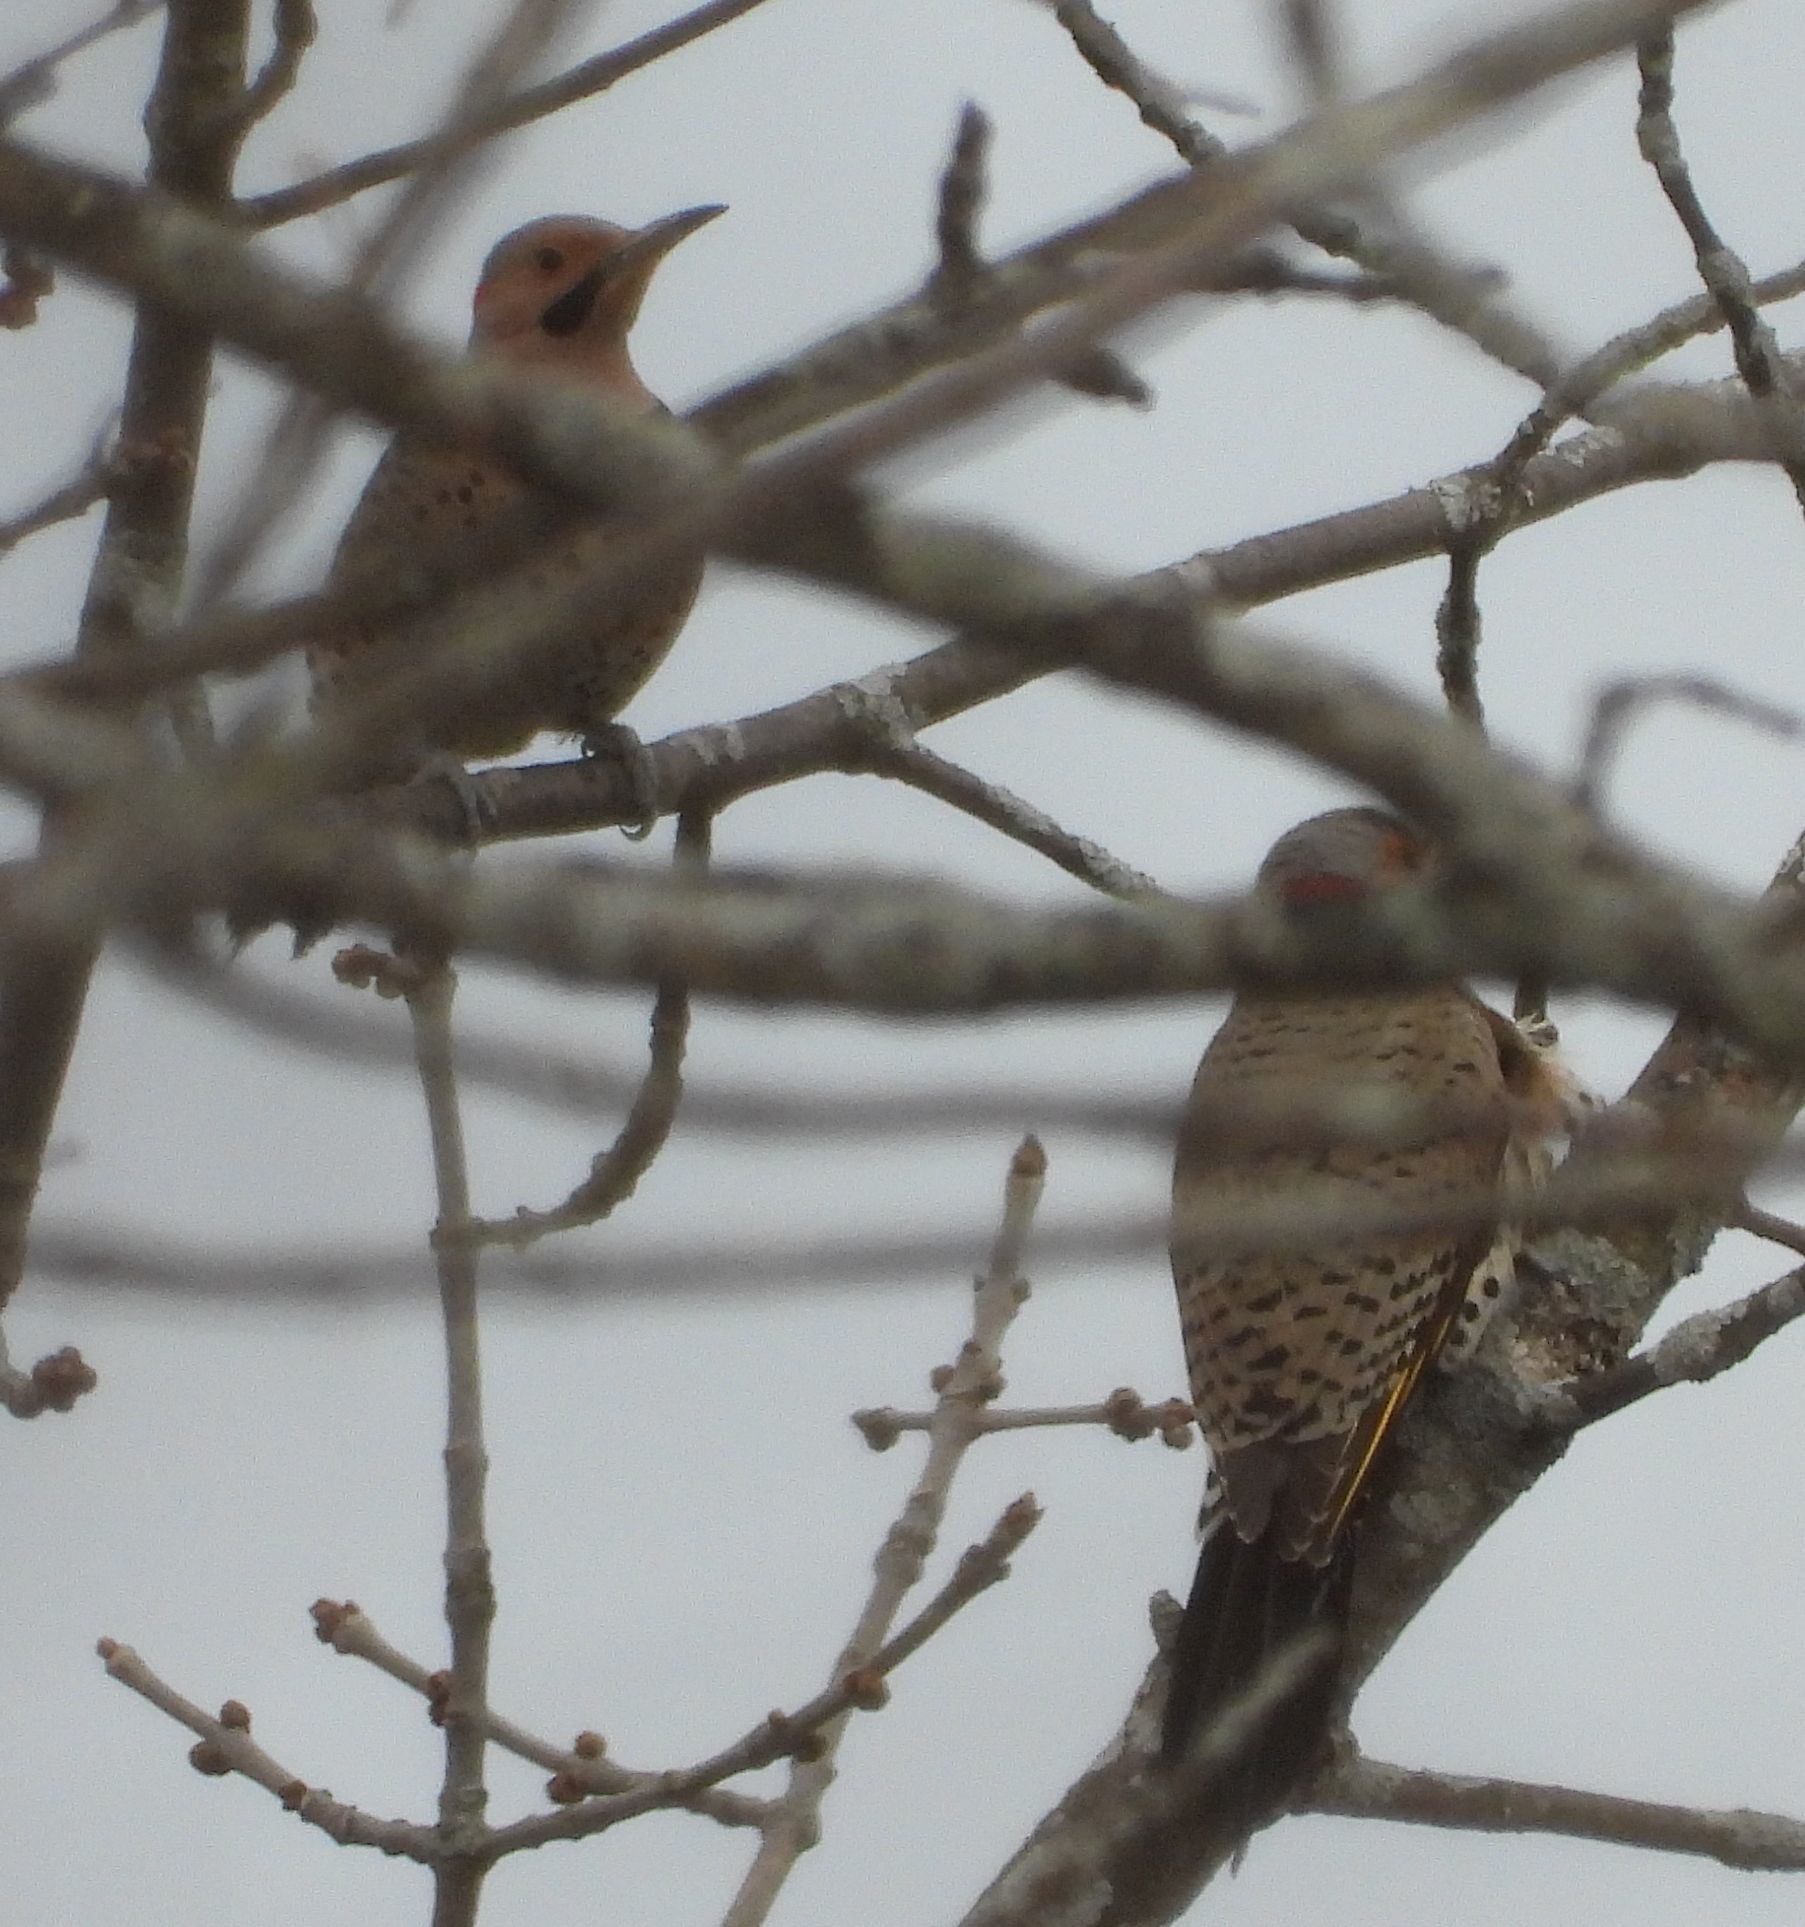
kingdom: Animalia
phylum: Chordata
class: Aves
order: Piciformes
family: Picidae
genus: Colaptes
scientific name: Colaptes auratus
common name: Northern flicker
